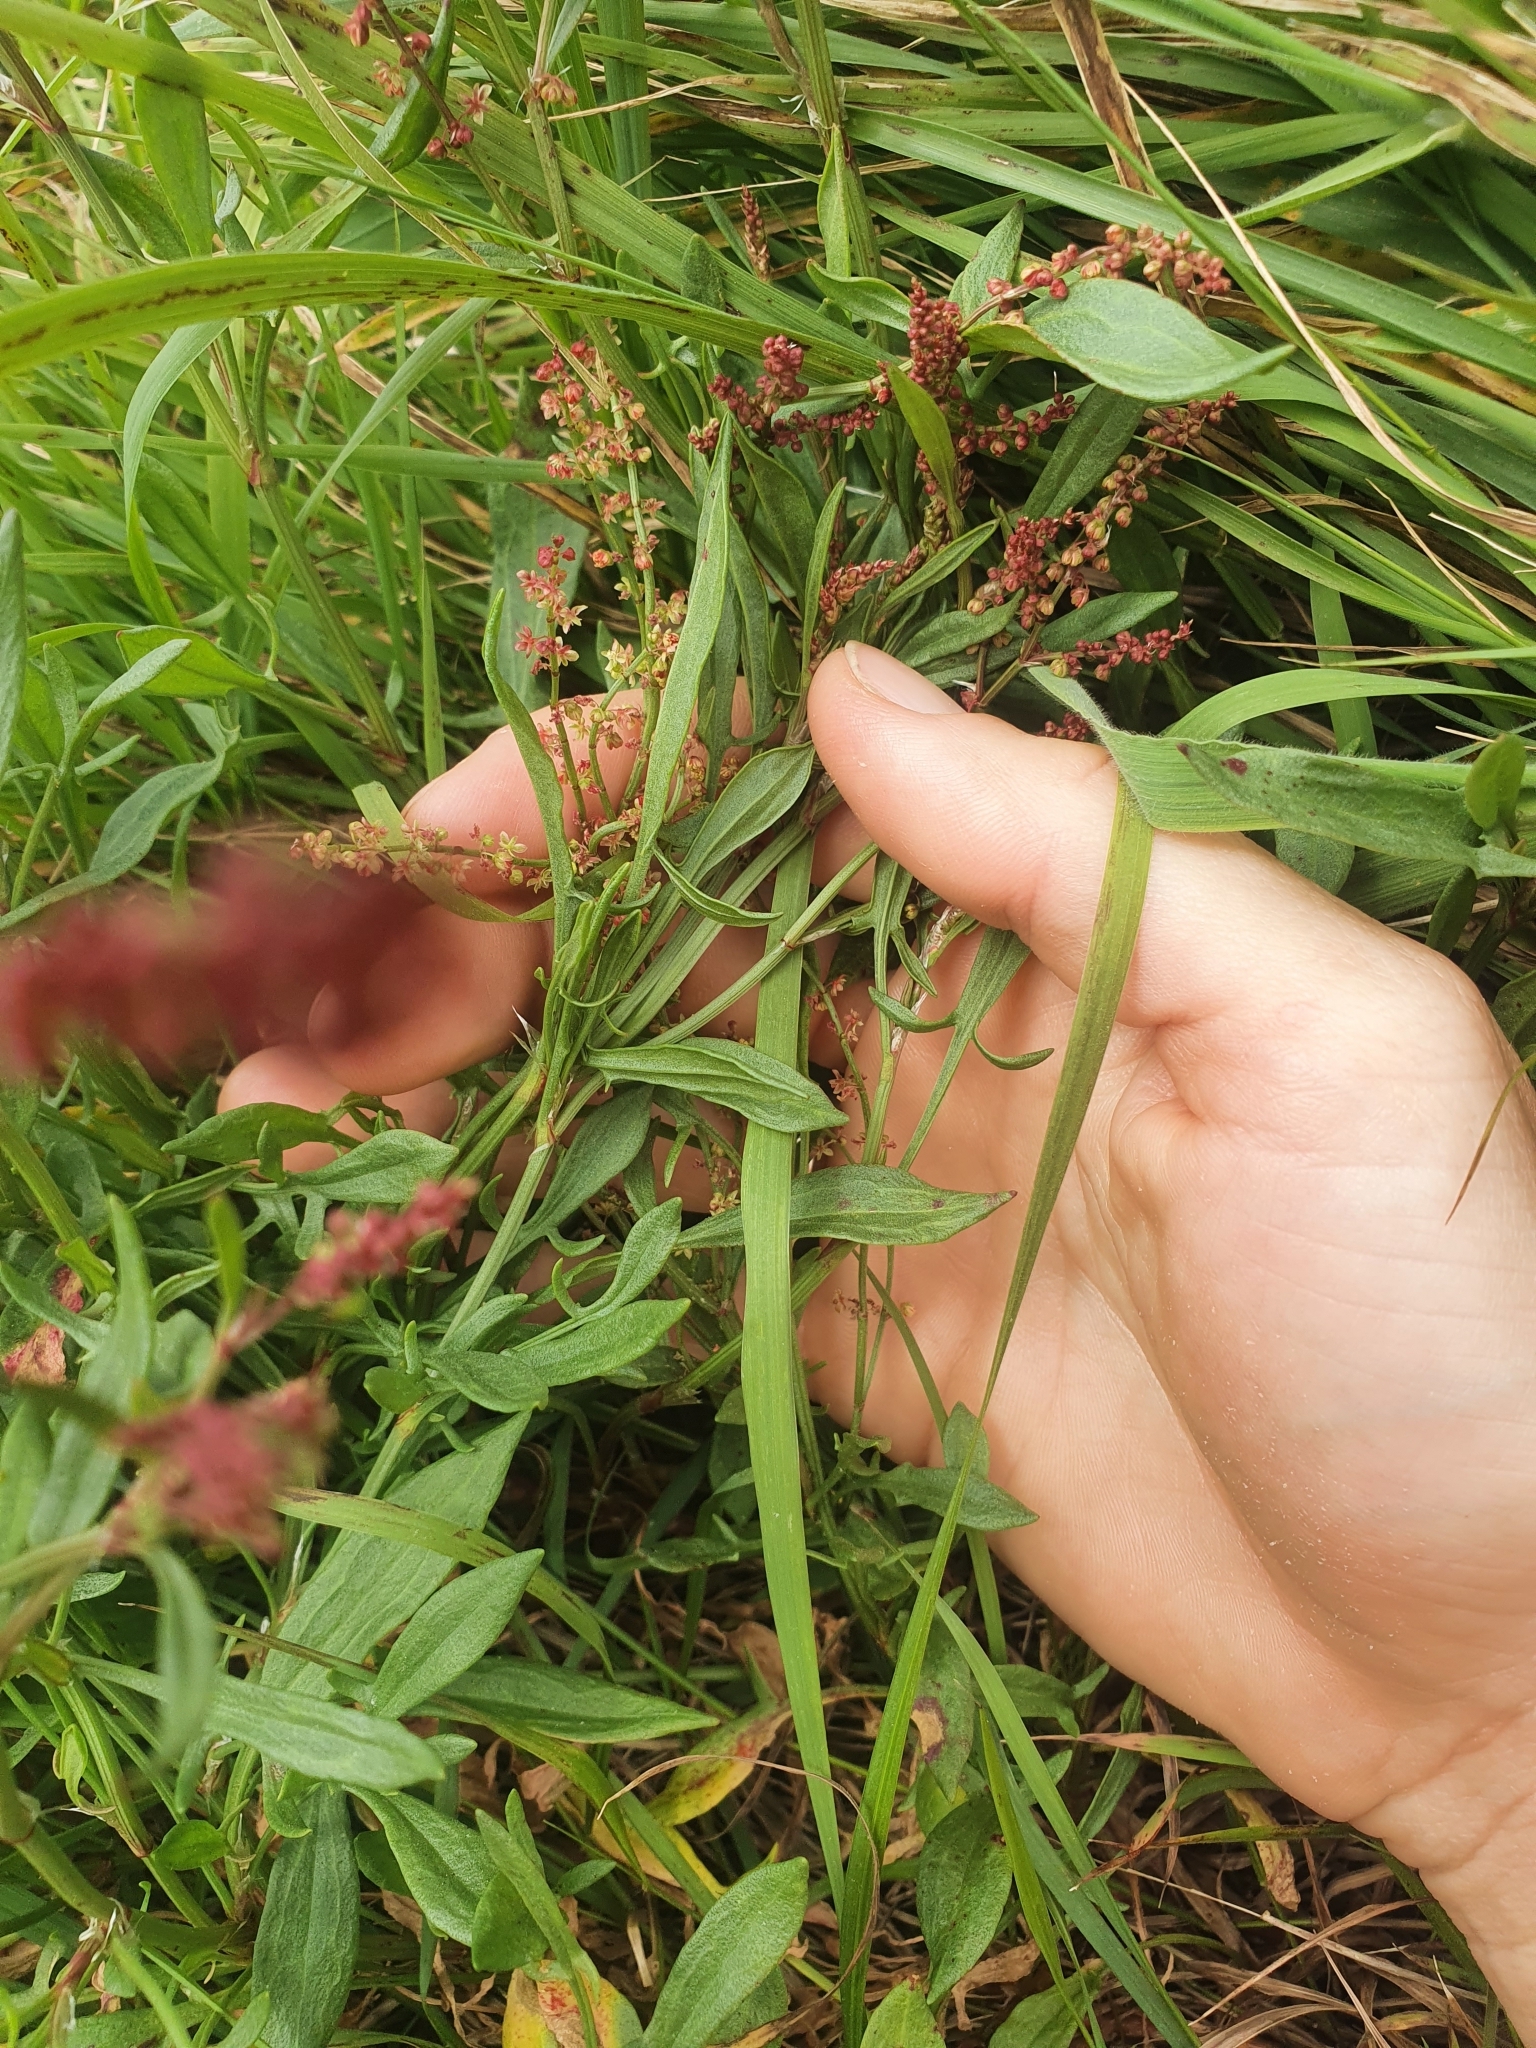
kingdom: Plantae
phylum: Tracheophyta
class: Magnoliopsida
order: Caryophyllales
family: Polygonaceae
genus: Rumex
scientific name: Rumex acetosella
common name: Common sheep sorrel
